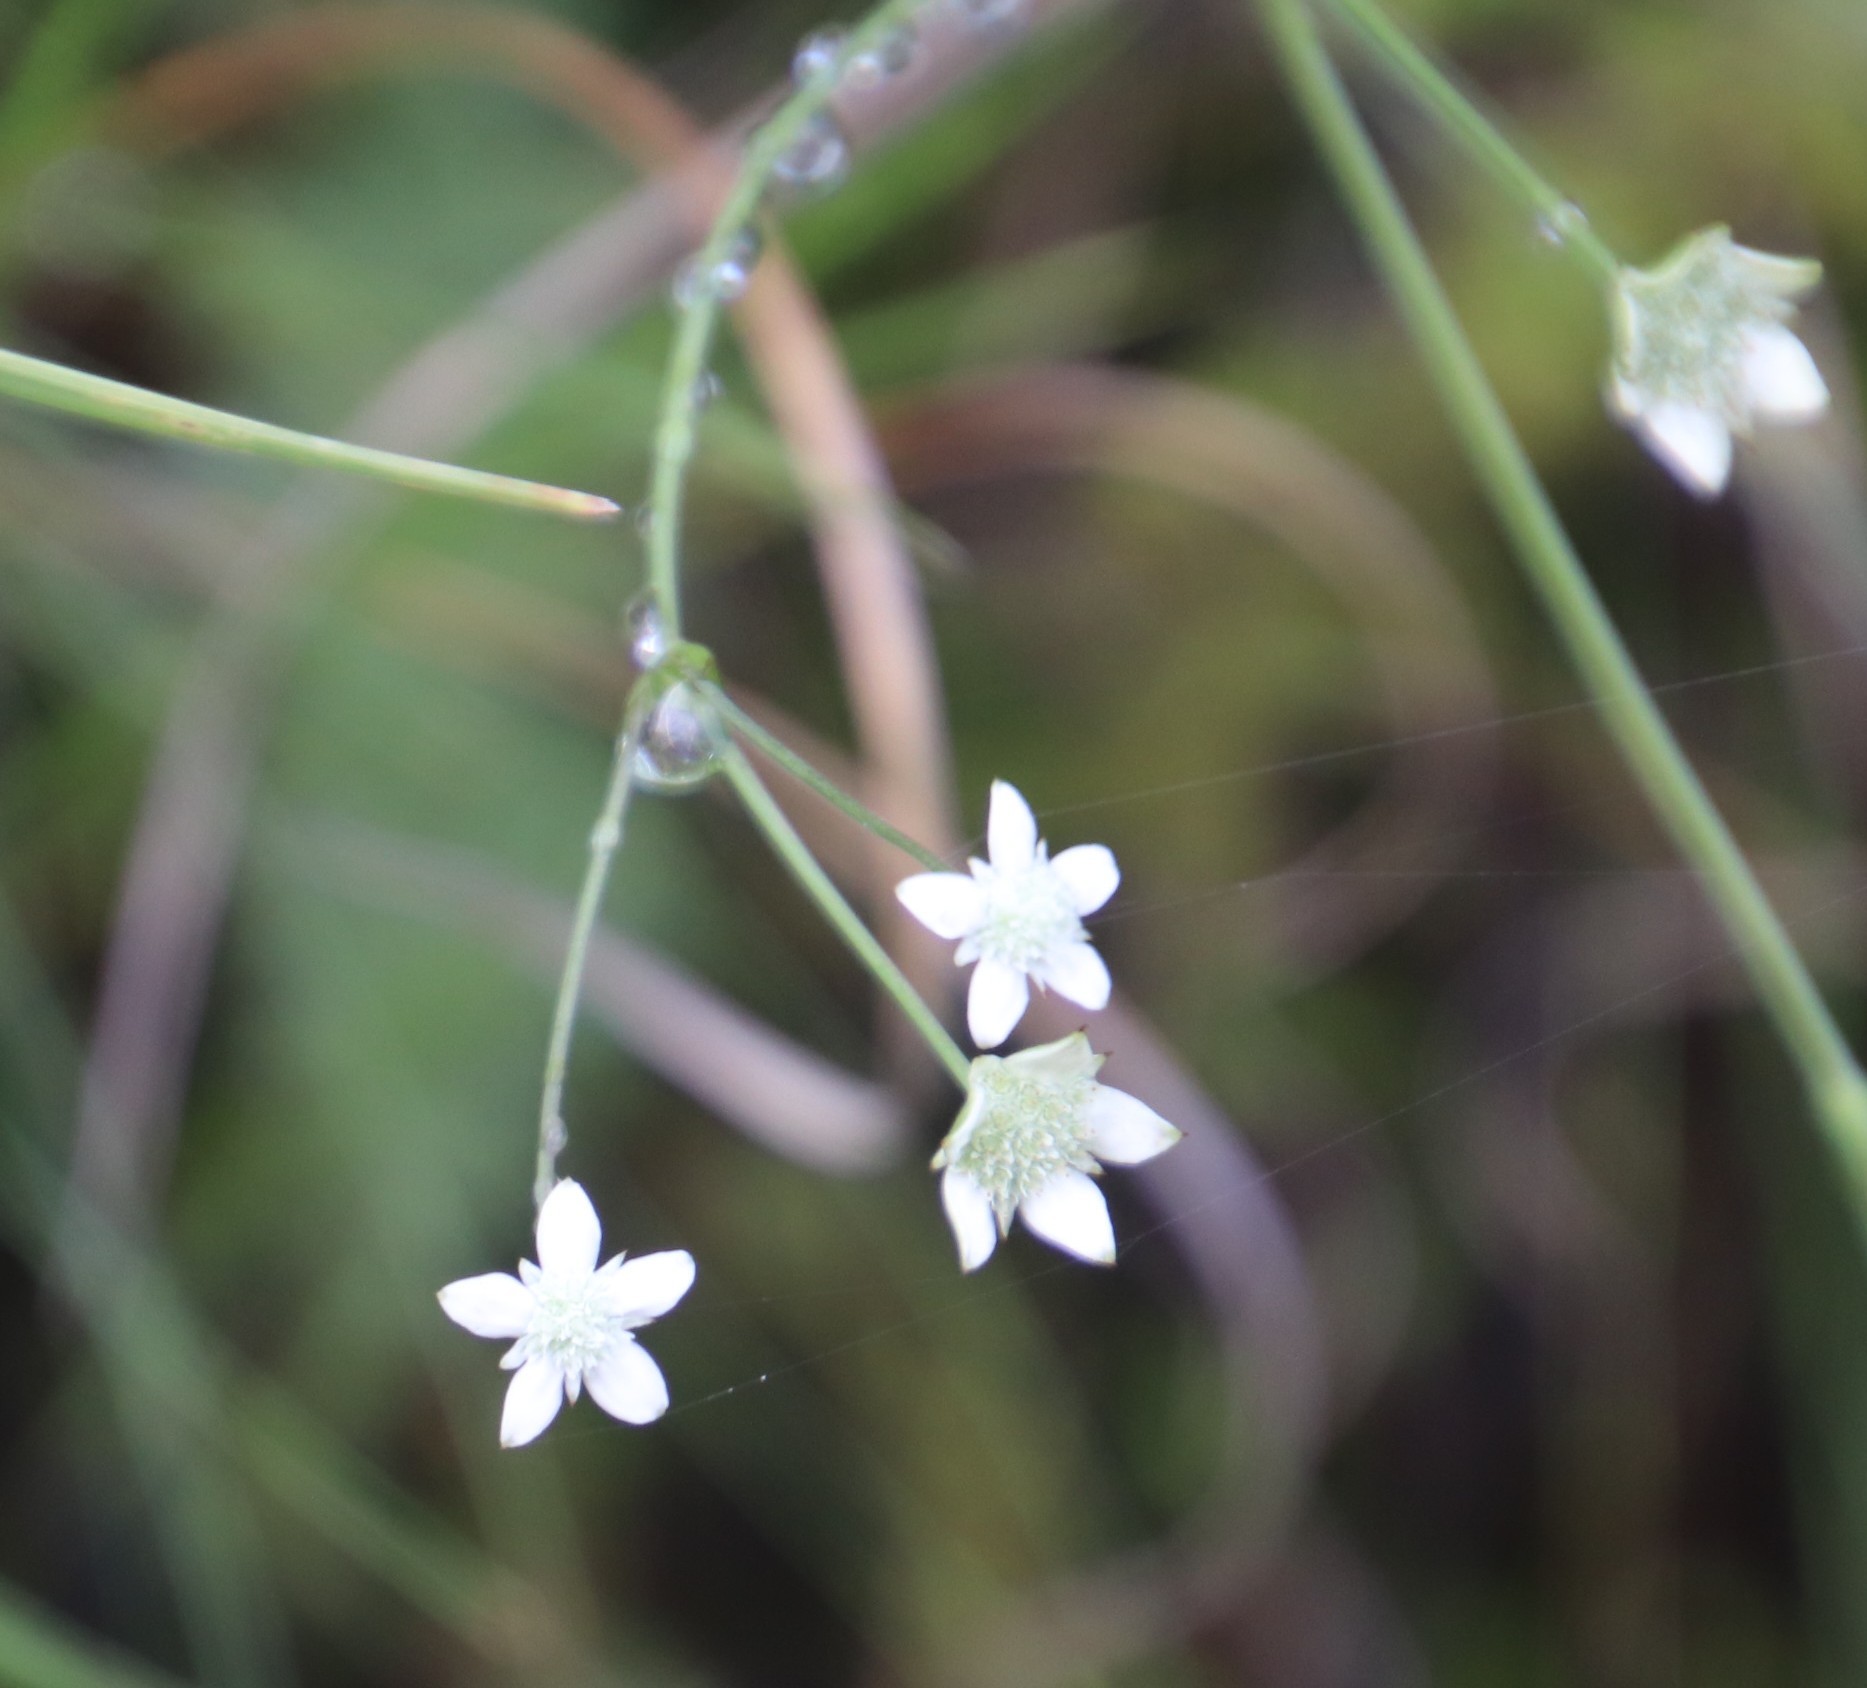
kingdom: Plantae
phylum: Tracheophyta
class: Magnoliopsida
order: Apiales
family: Apiaceae
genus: Alepidea
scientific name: Alepidea natalensis
